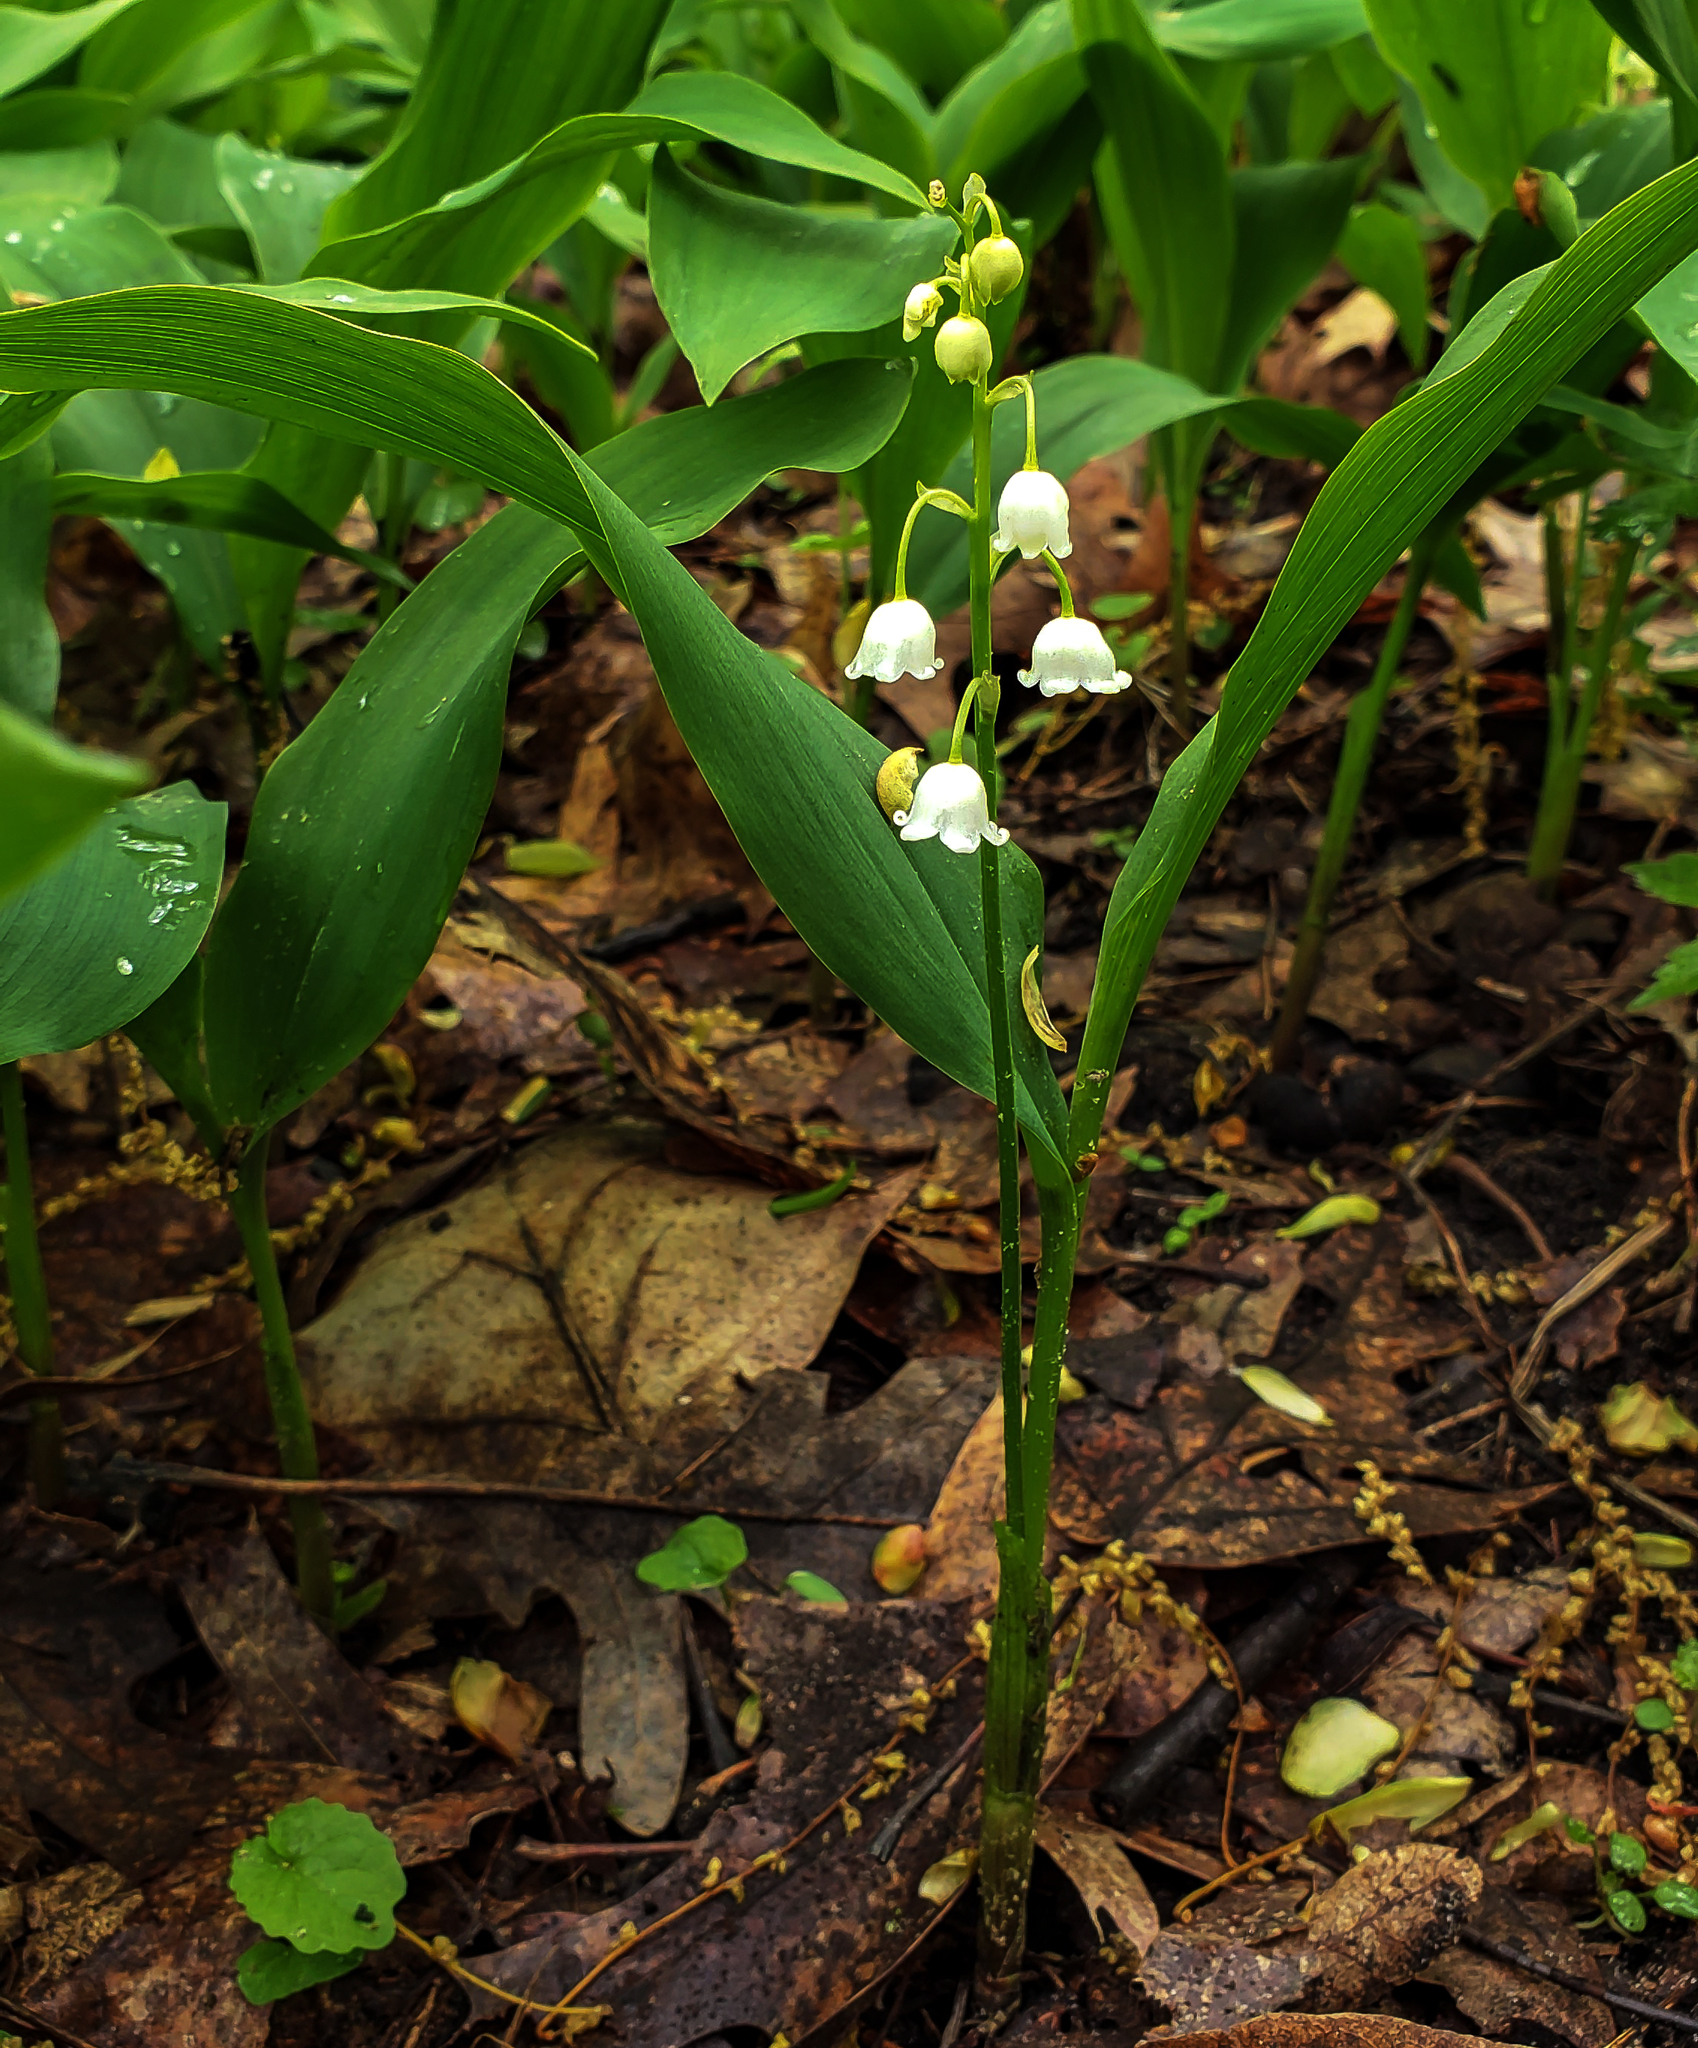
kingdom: Plantae
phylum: Tracheophyta
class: Liliopsida
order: Asparagales
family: Asparagaceae
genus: Convallaria
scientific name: Convallaria majalis
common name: Lily-of-the-valley
